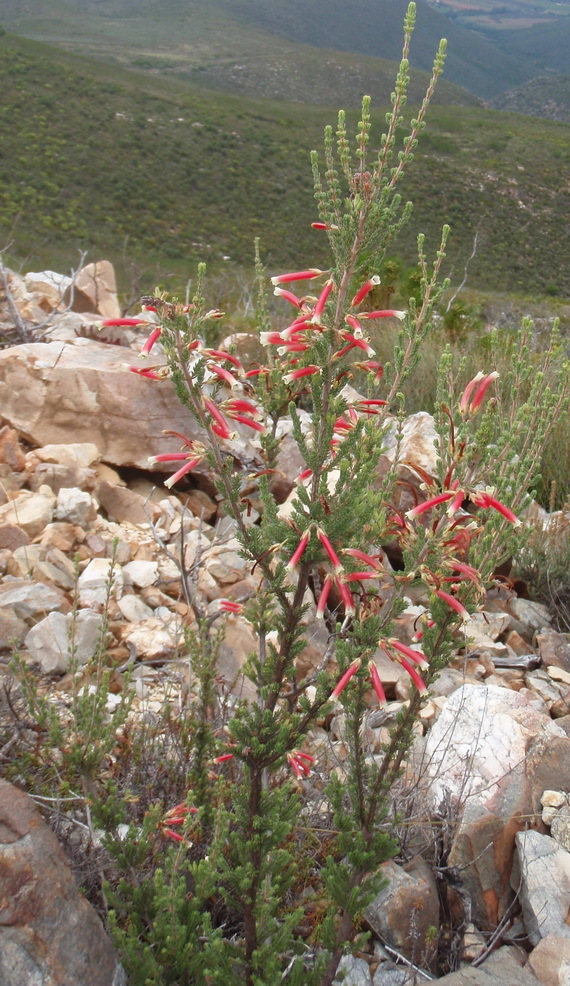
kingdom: Plantae
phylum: Tracheophyta
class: Magnoliopsida
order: Ericales
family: Ericaceae
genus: Erica
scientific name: Erica discolor
